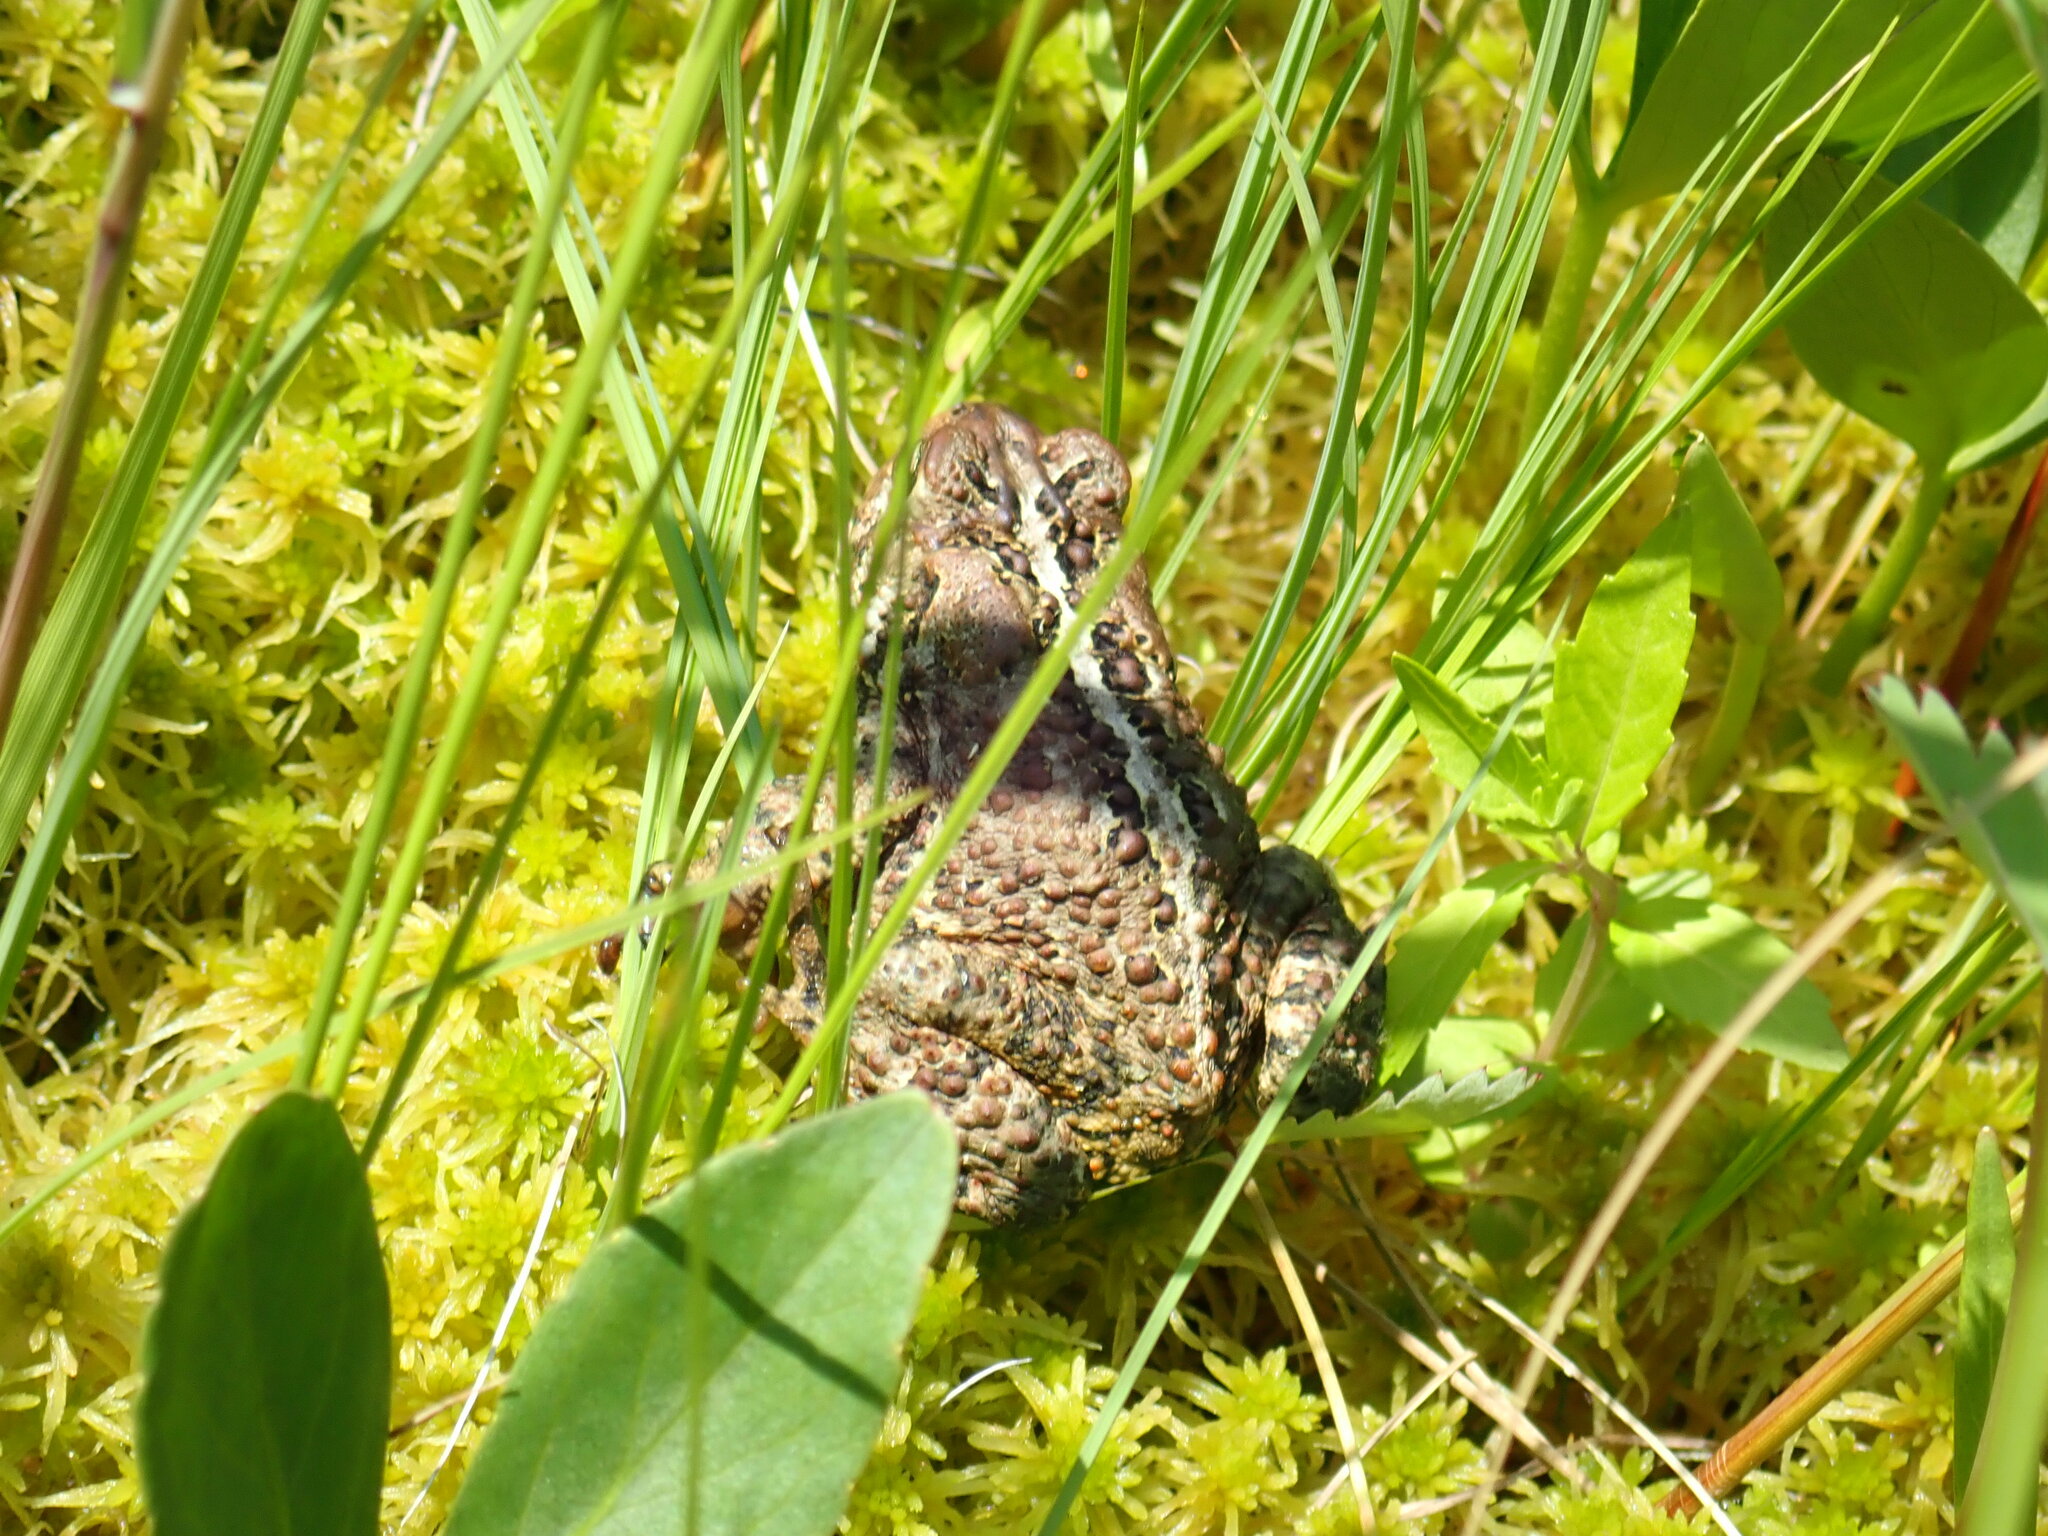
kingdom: Animalia
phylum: Chordata
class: Amphibia
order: Anura
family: Bufonidae
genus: Anaxyrus
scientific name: Anaxyrus americanus
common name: American toad
